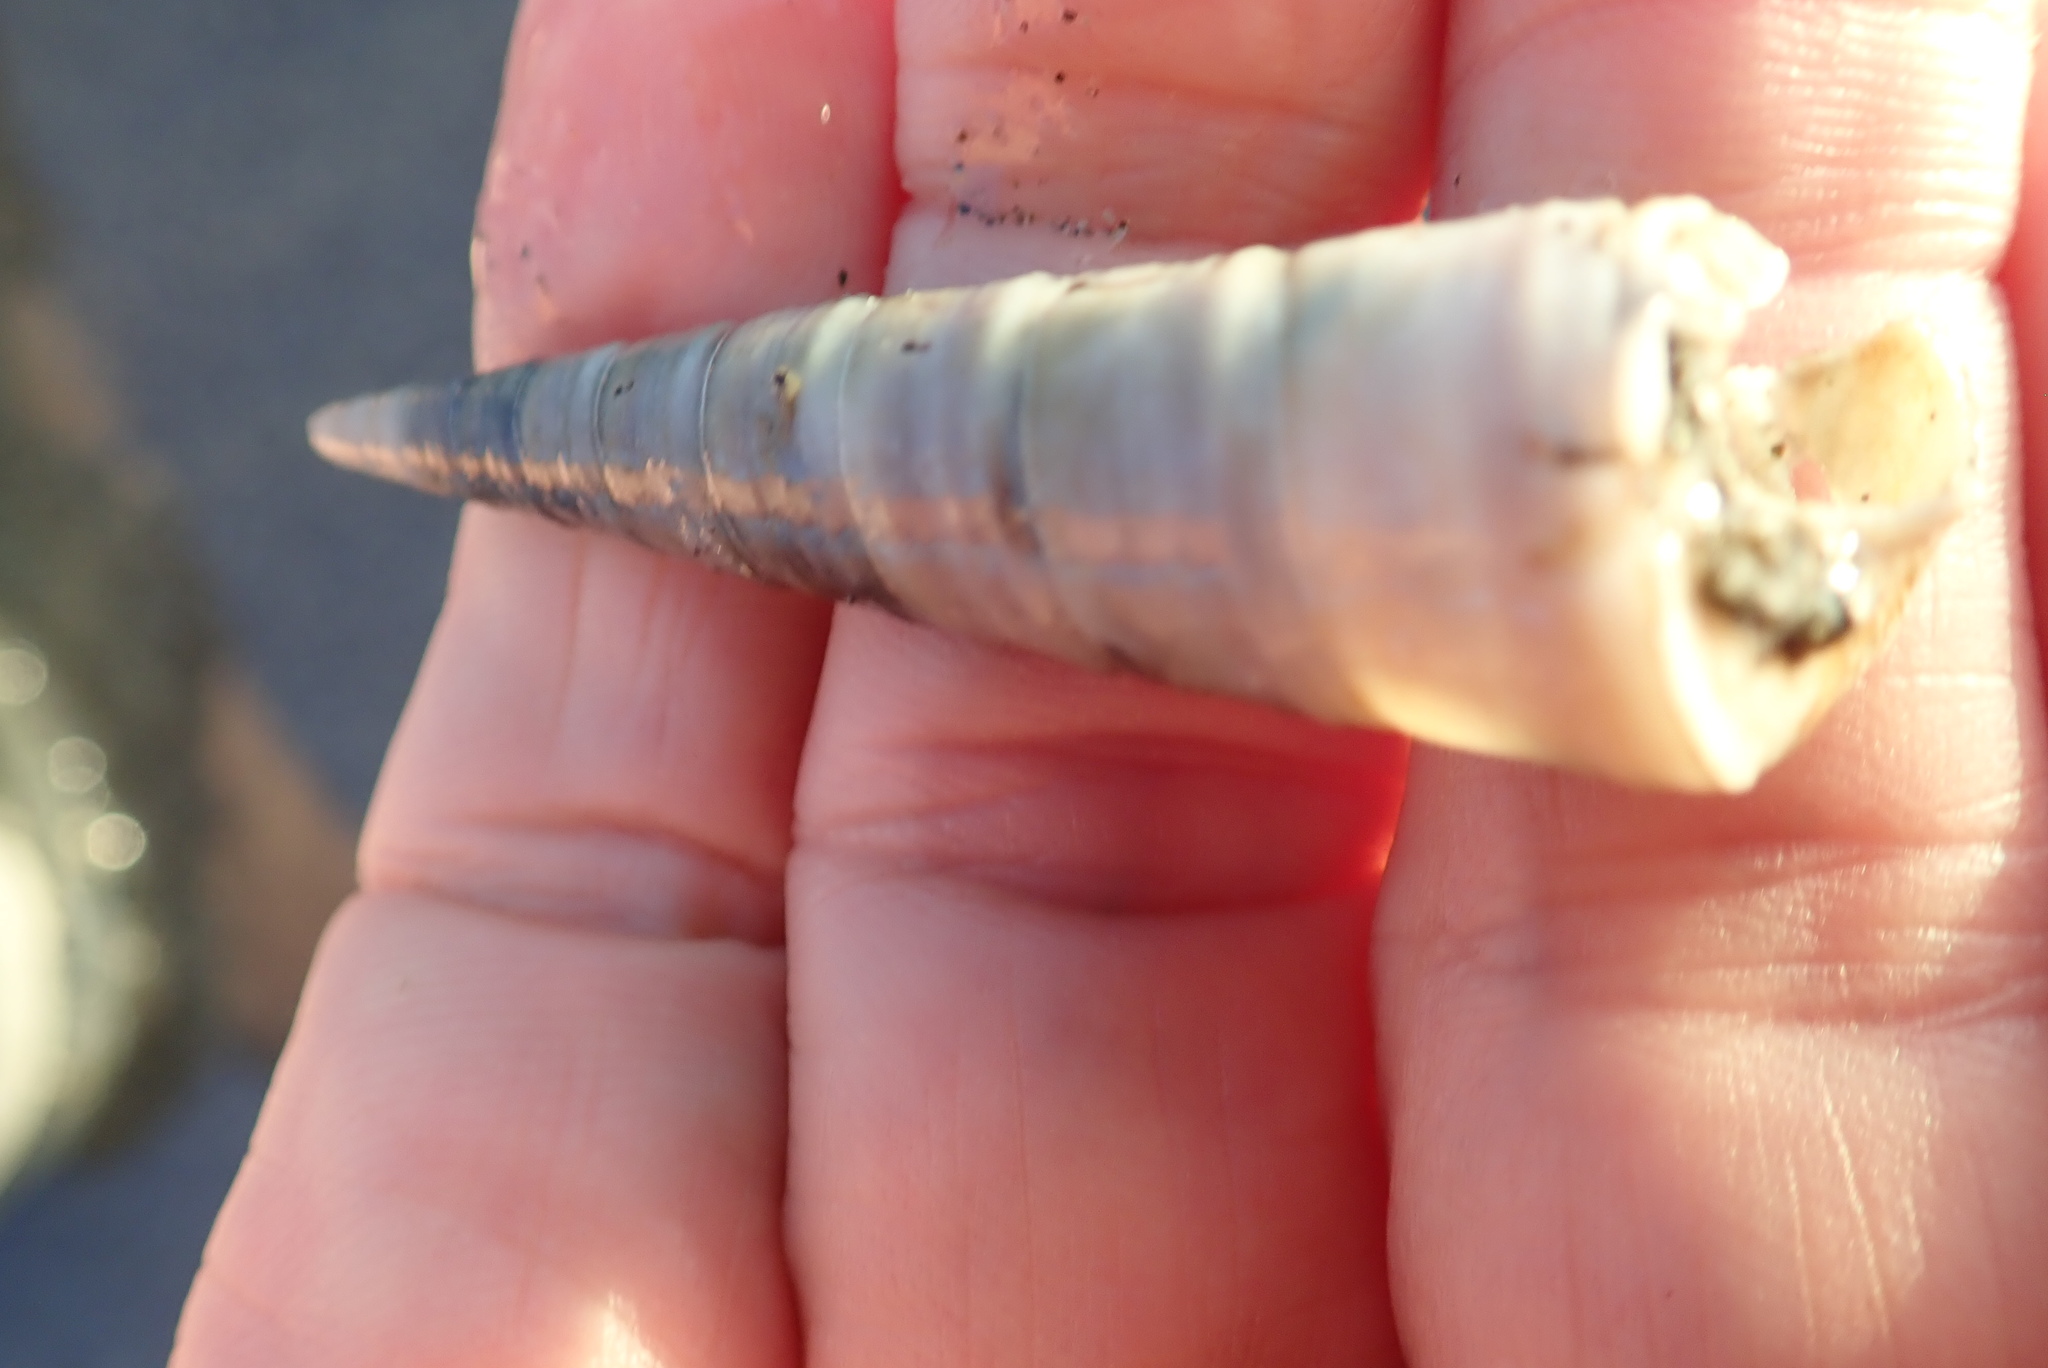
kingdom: Animalia
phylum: Mollusca
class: Gastropoda
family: Turritellidae
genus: Zeacolpus
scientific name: Zeacolpus vittatus
